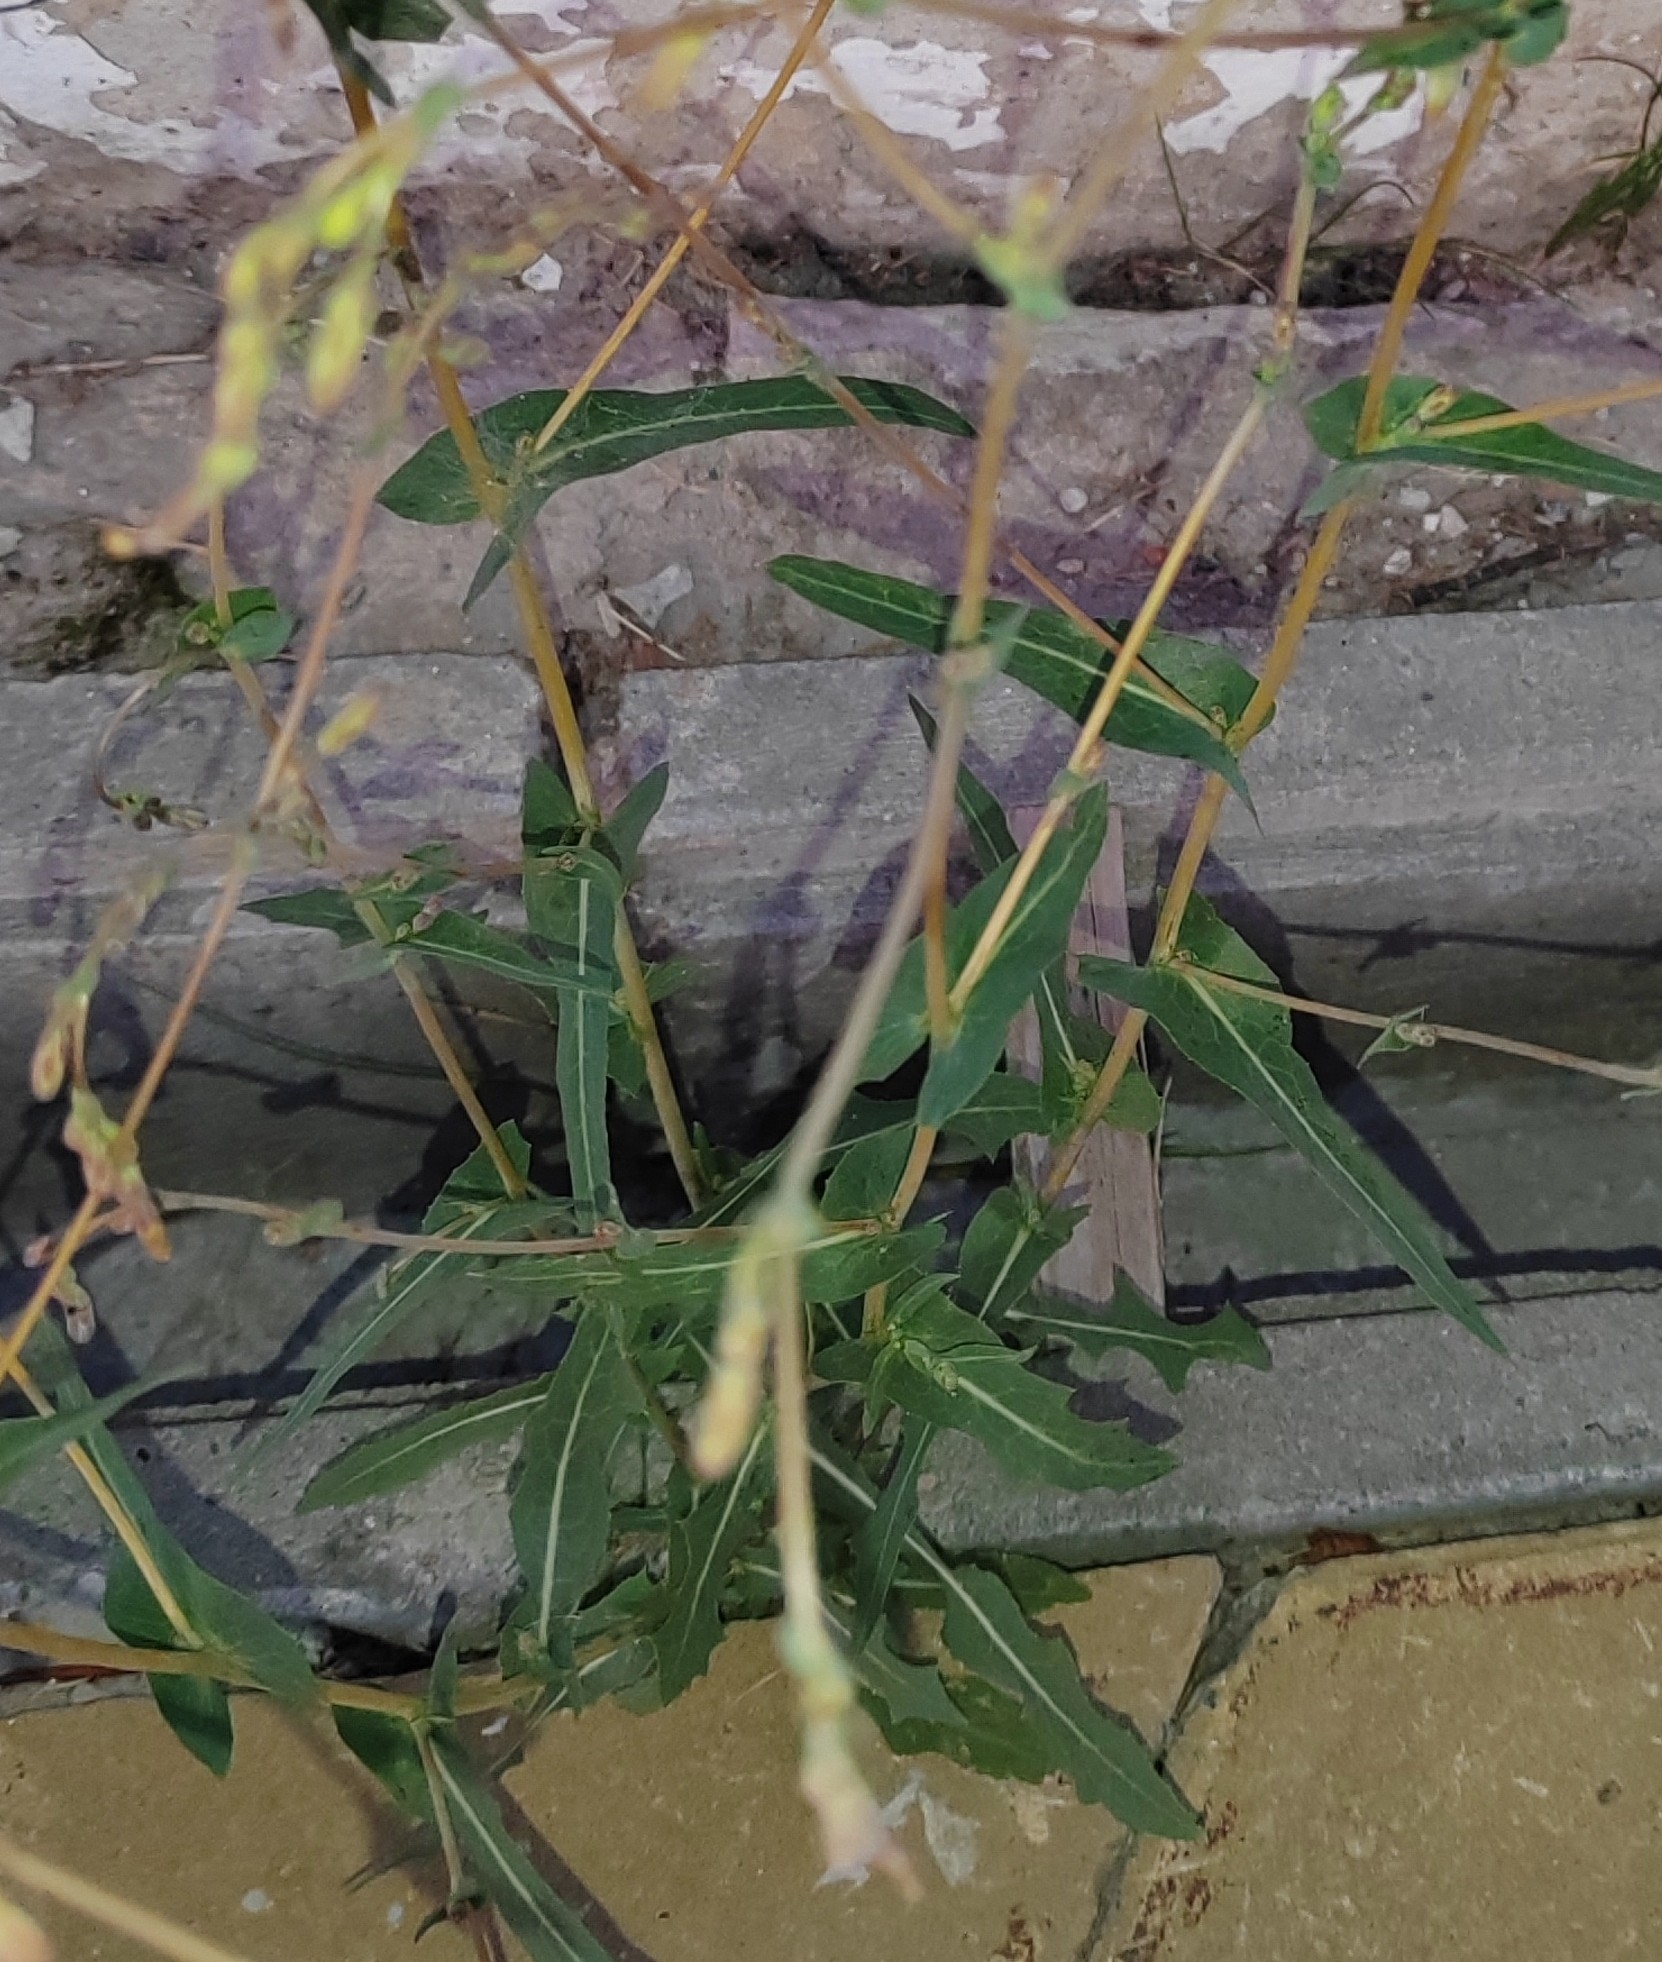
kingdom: Plantae
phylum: Tracheophyta
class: Magnoliopsida
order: Asterales
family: Asteraceae
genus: Lactuca
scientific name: Lactuca serriola
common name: Prickly lettuce
